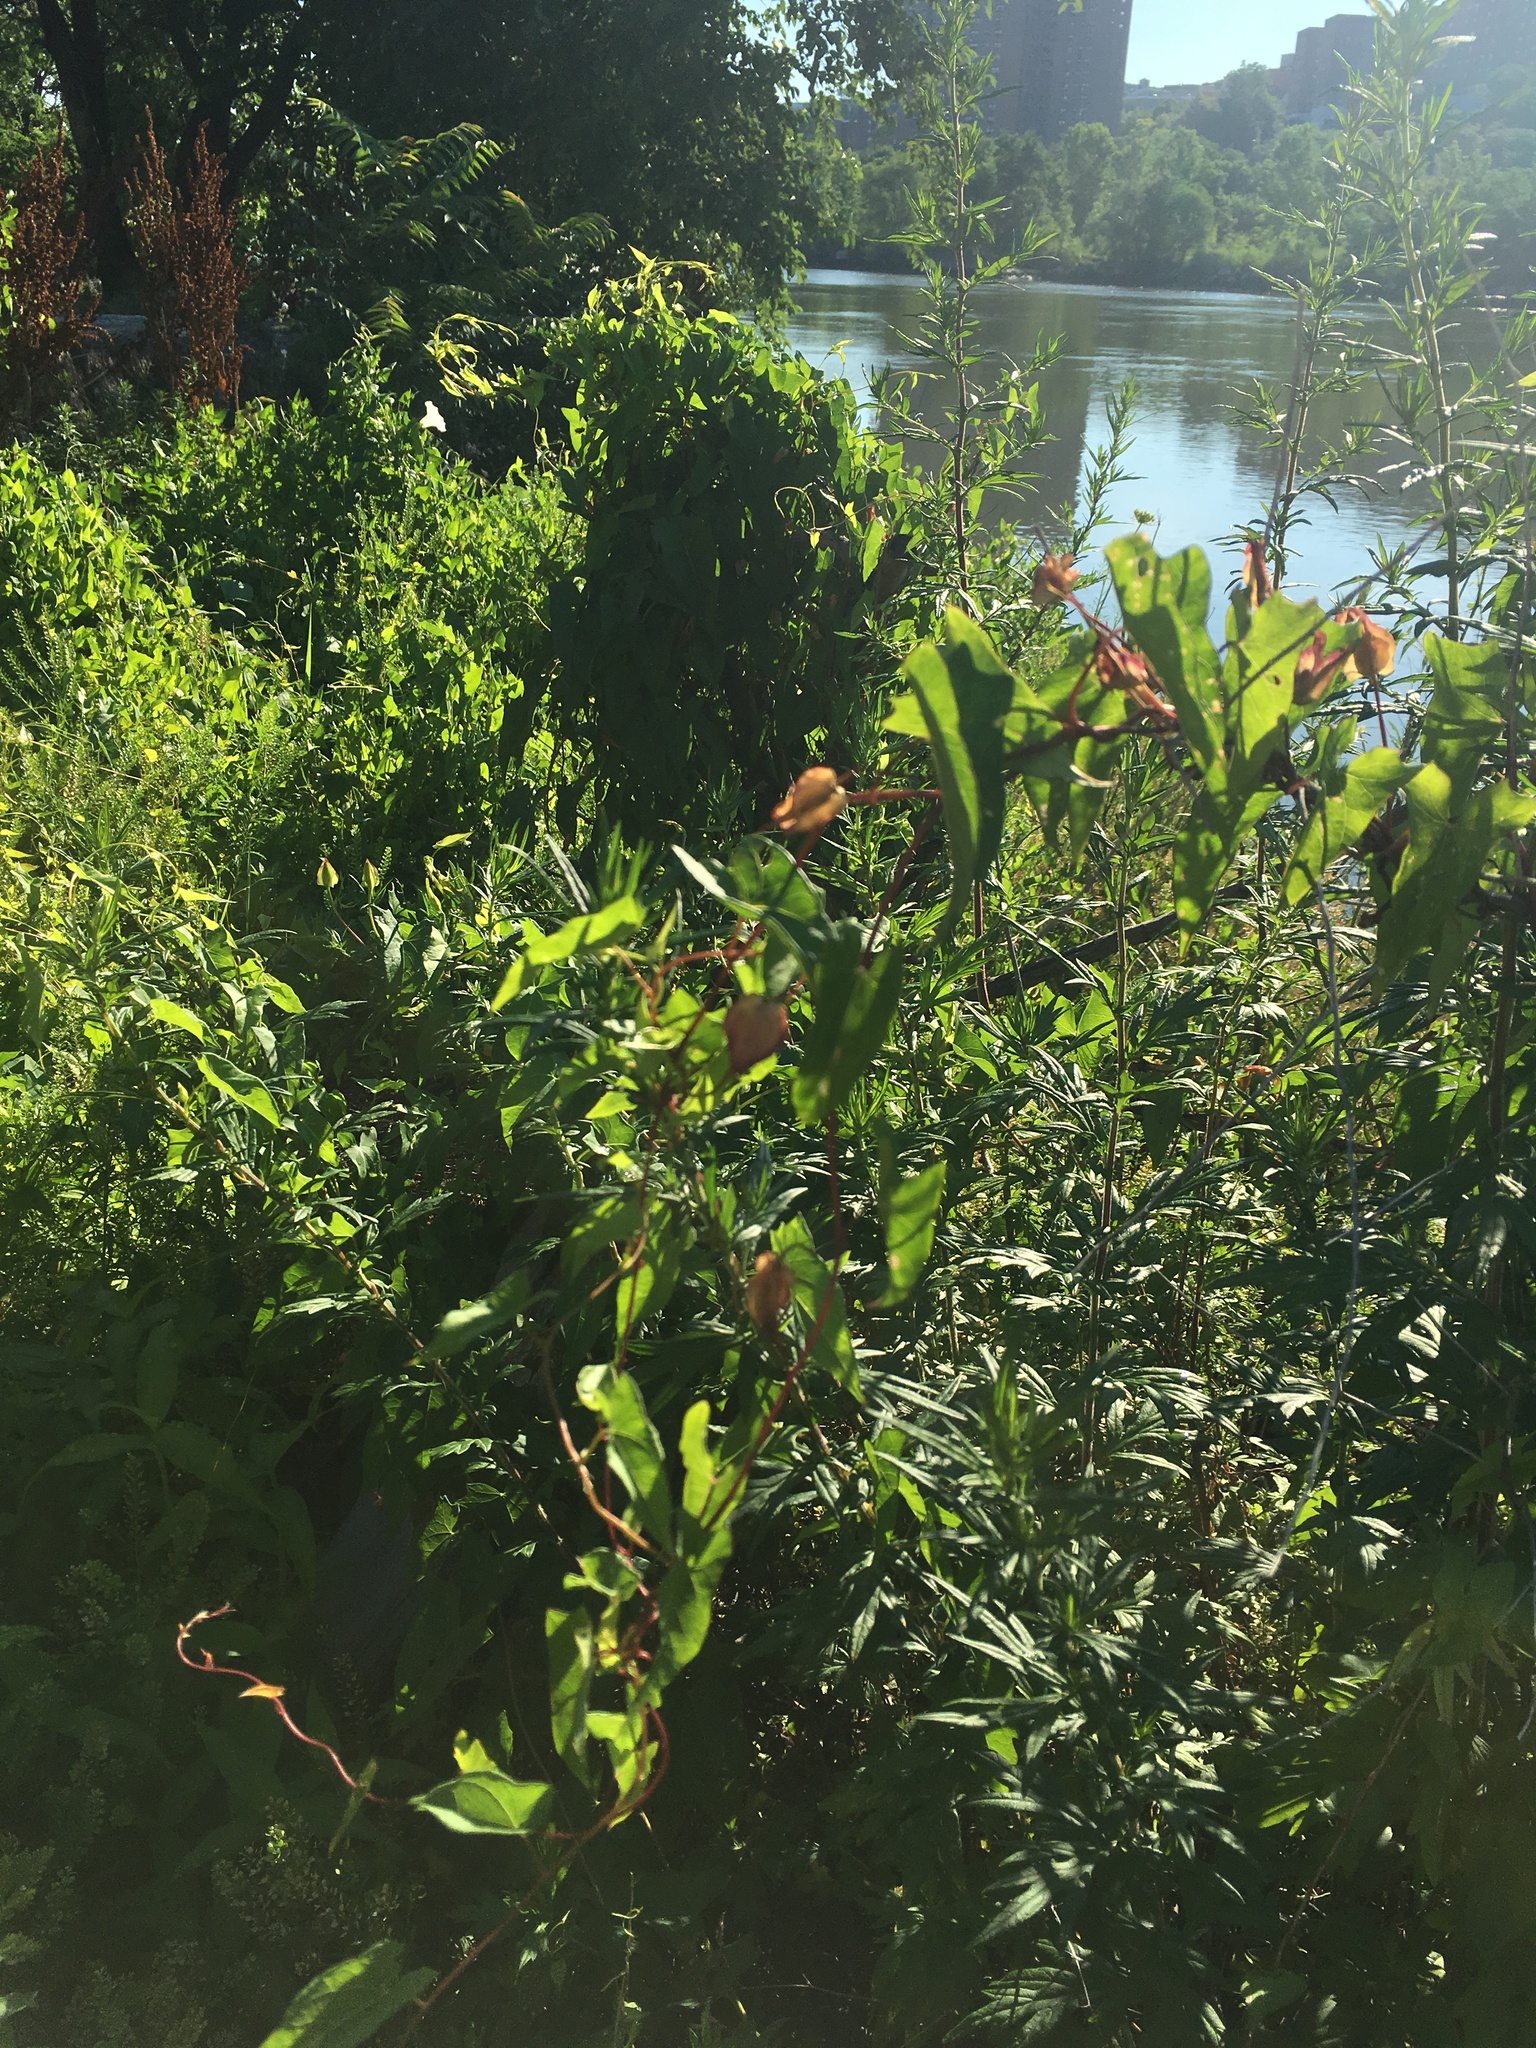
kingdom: Plantae
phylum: Tracheophyta
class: Magnoliopsida
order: Solanales
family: Convolvulaceae
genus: Calystegia
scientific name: Calystegia sepium
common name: Hedge bindweed
